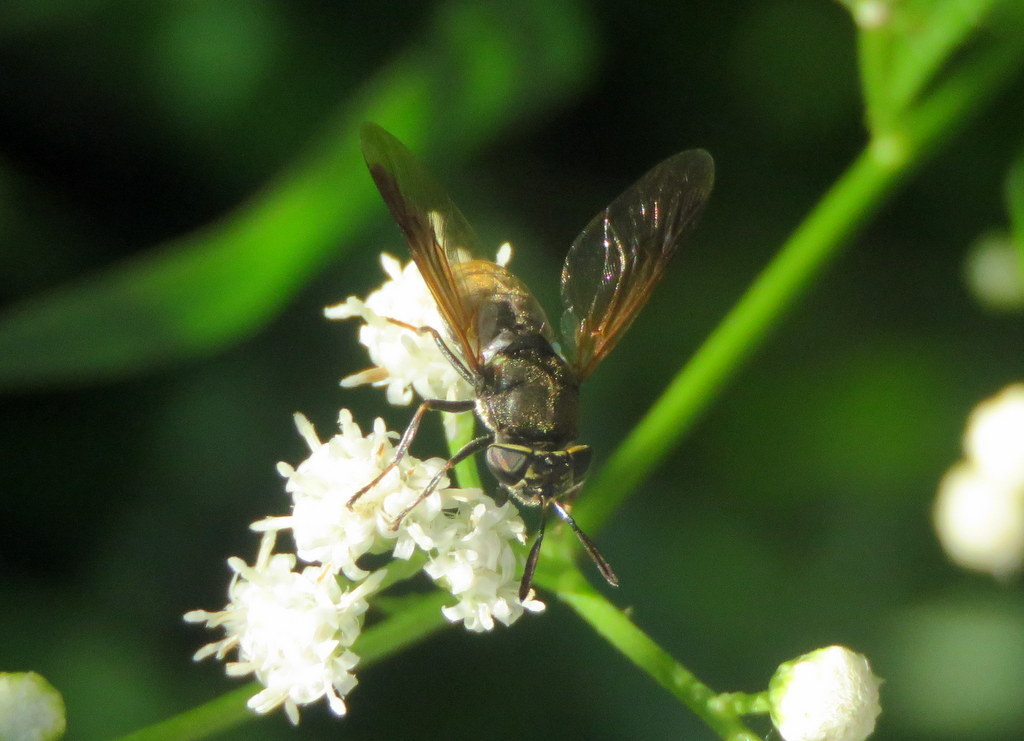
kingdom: Animalia
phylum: Arthropoda
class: Insecta
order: Diptera
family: Stratiomyidae
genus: Hoplitimyia
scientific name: Hoplitimyia
